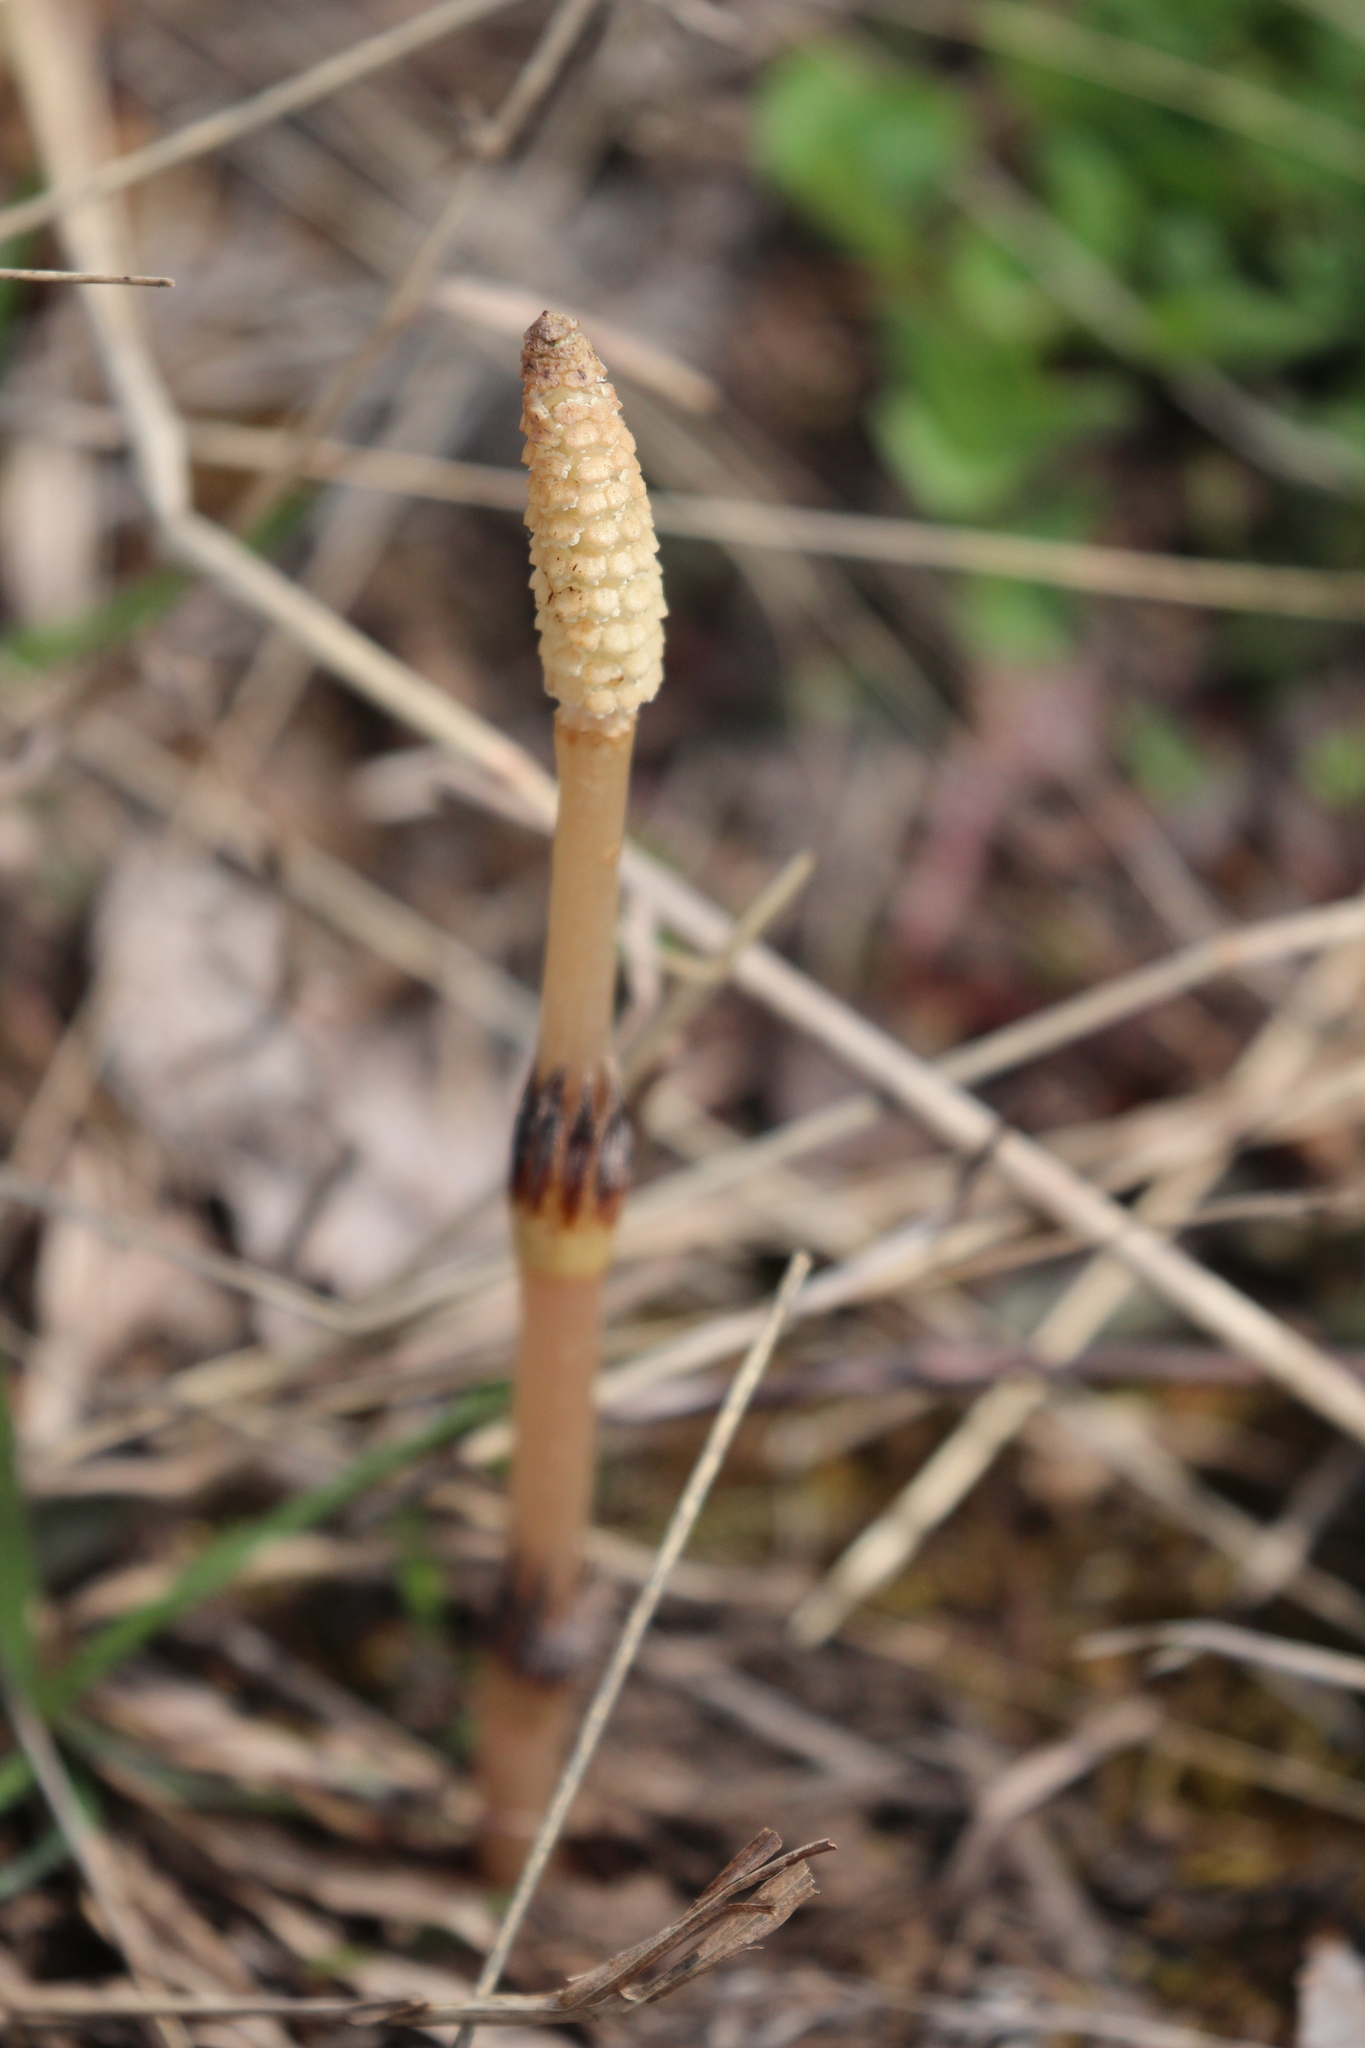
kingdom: Plantae
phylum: Tracheophyta
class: Polypodiopsida
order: Equisetales
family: Equisetaceae
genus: Equisetum
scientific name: Equisetum arvense
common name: Field horsetail
